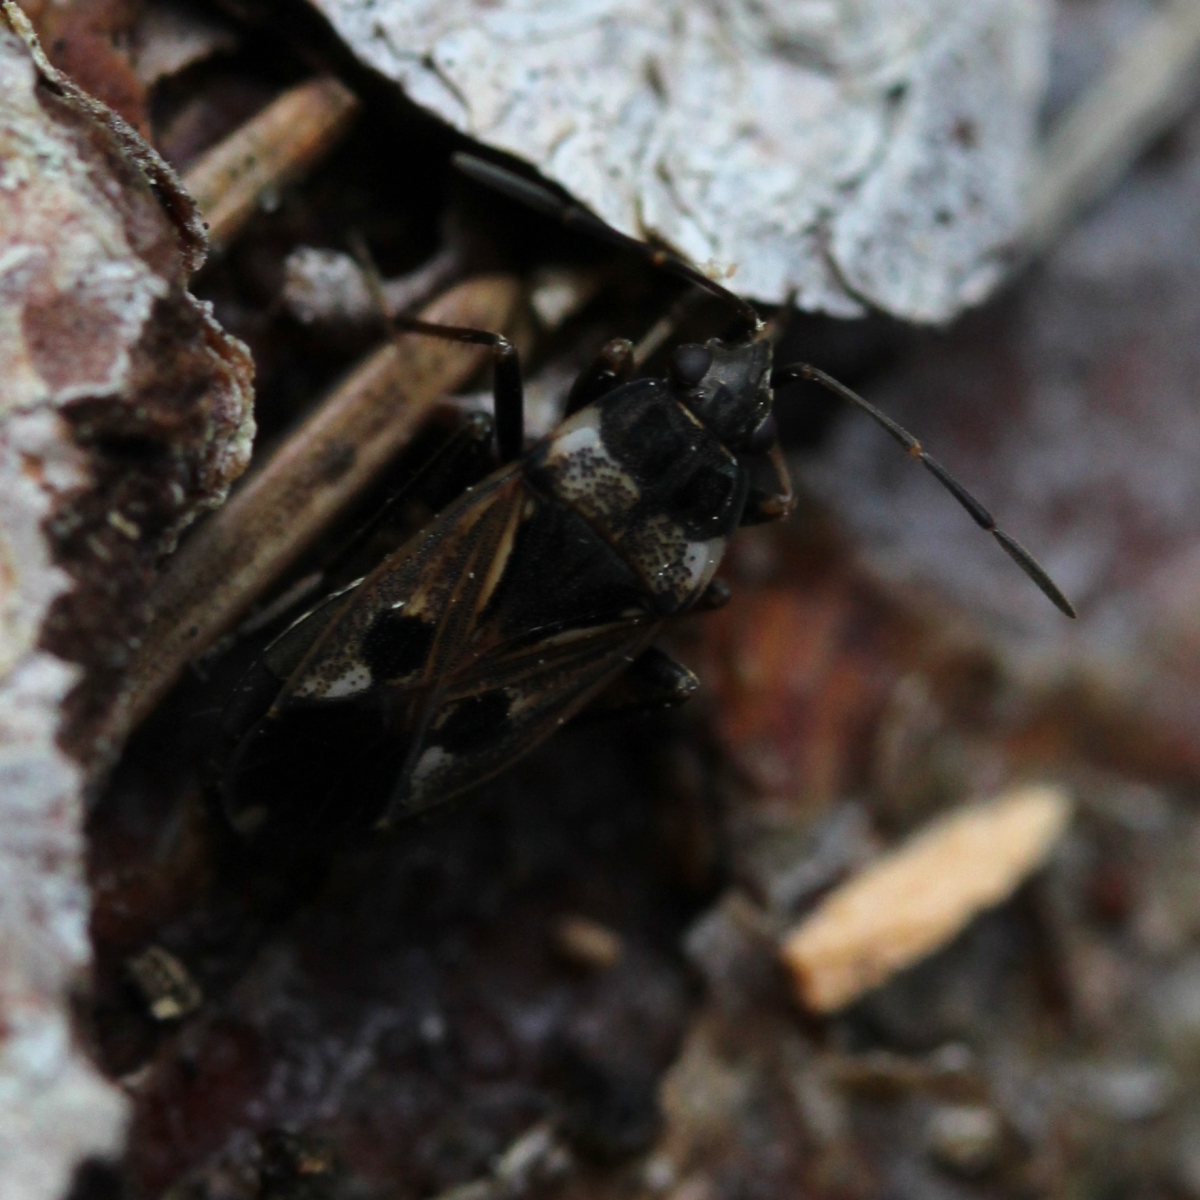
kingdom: Animalia
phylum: Arthropoda
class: Insecta
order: Hemiptera
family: Rhyparochromidae
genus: Rhyparochromus
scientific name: Rhyparochromus vulgaris
